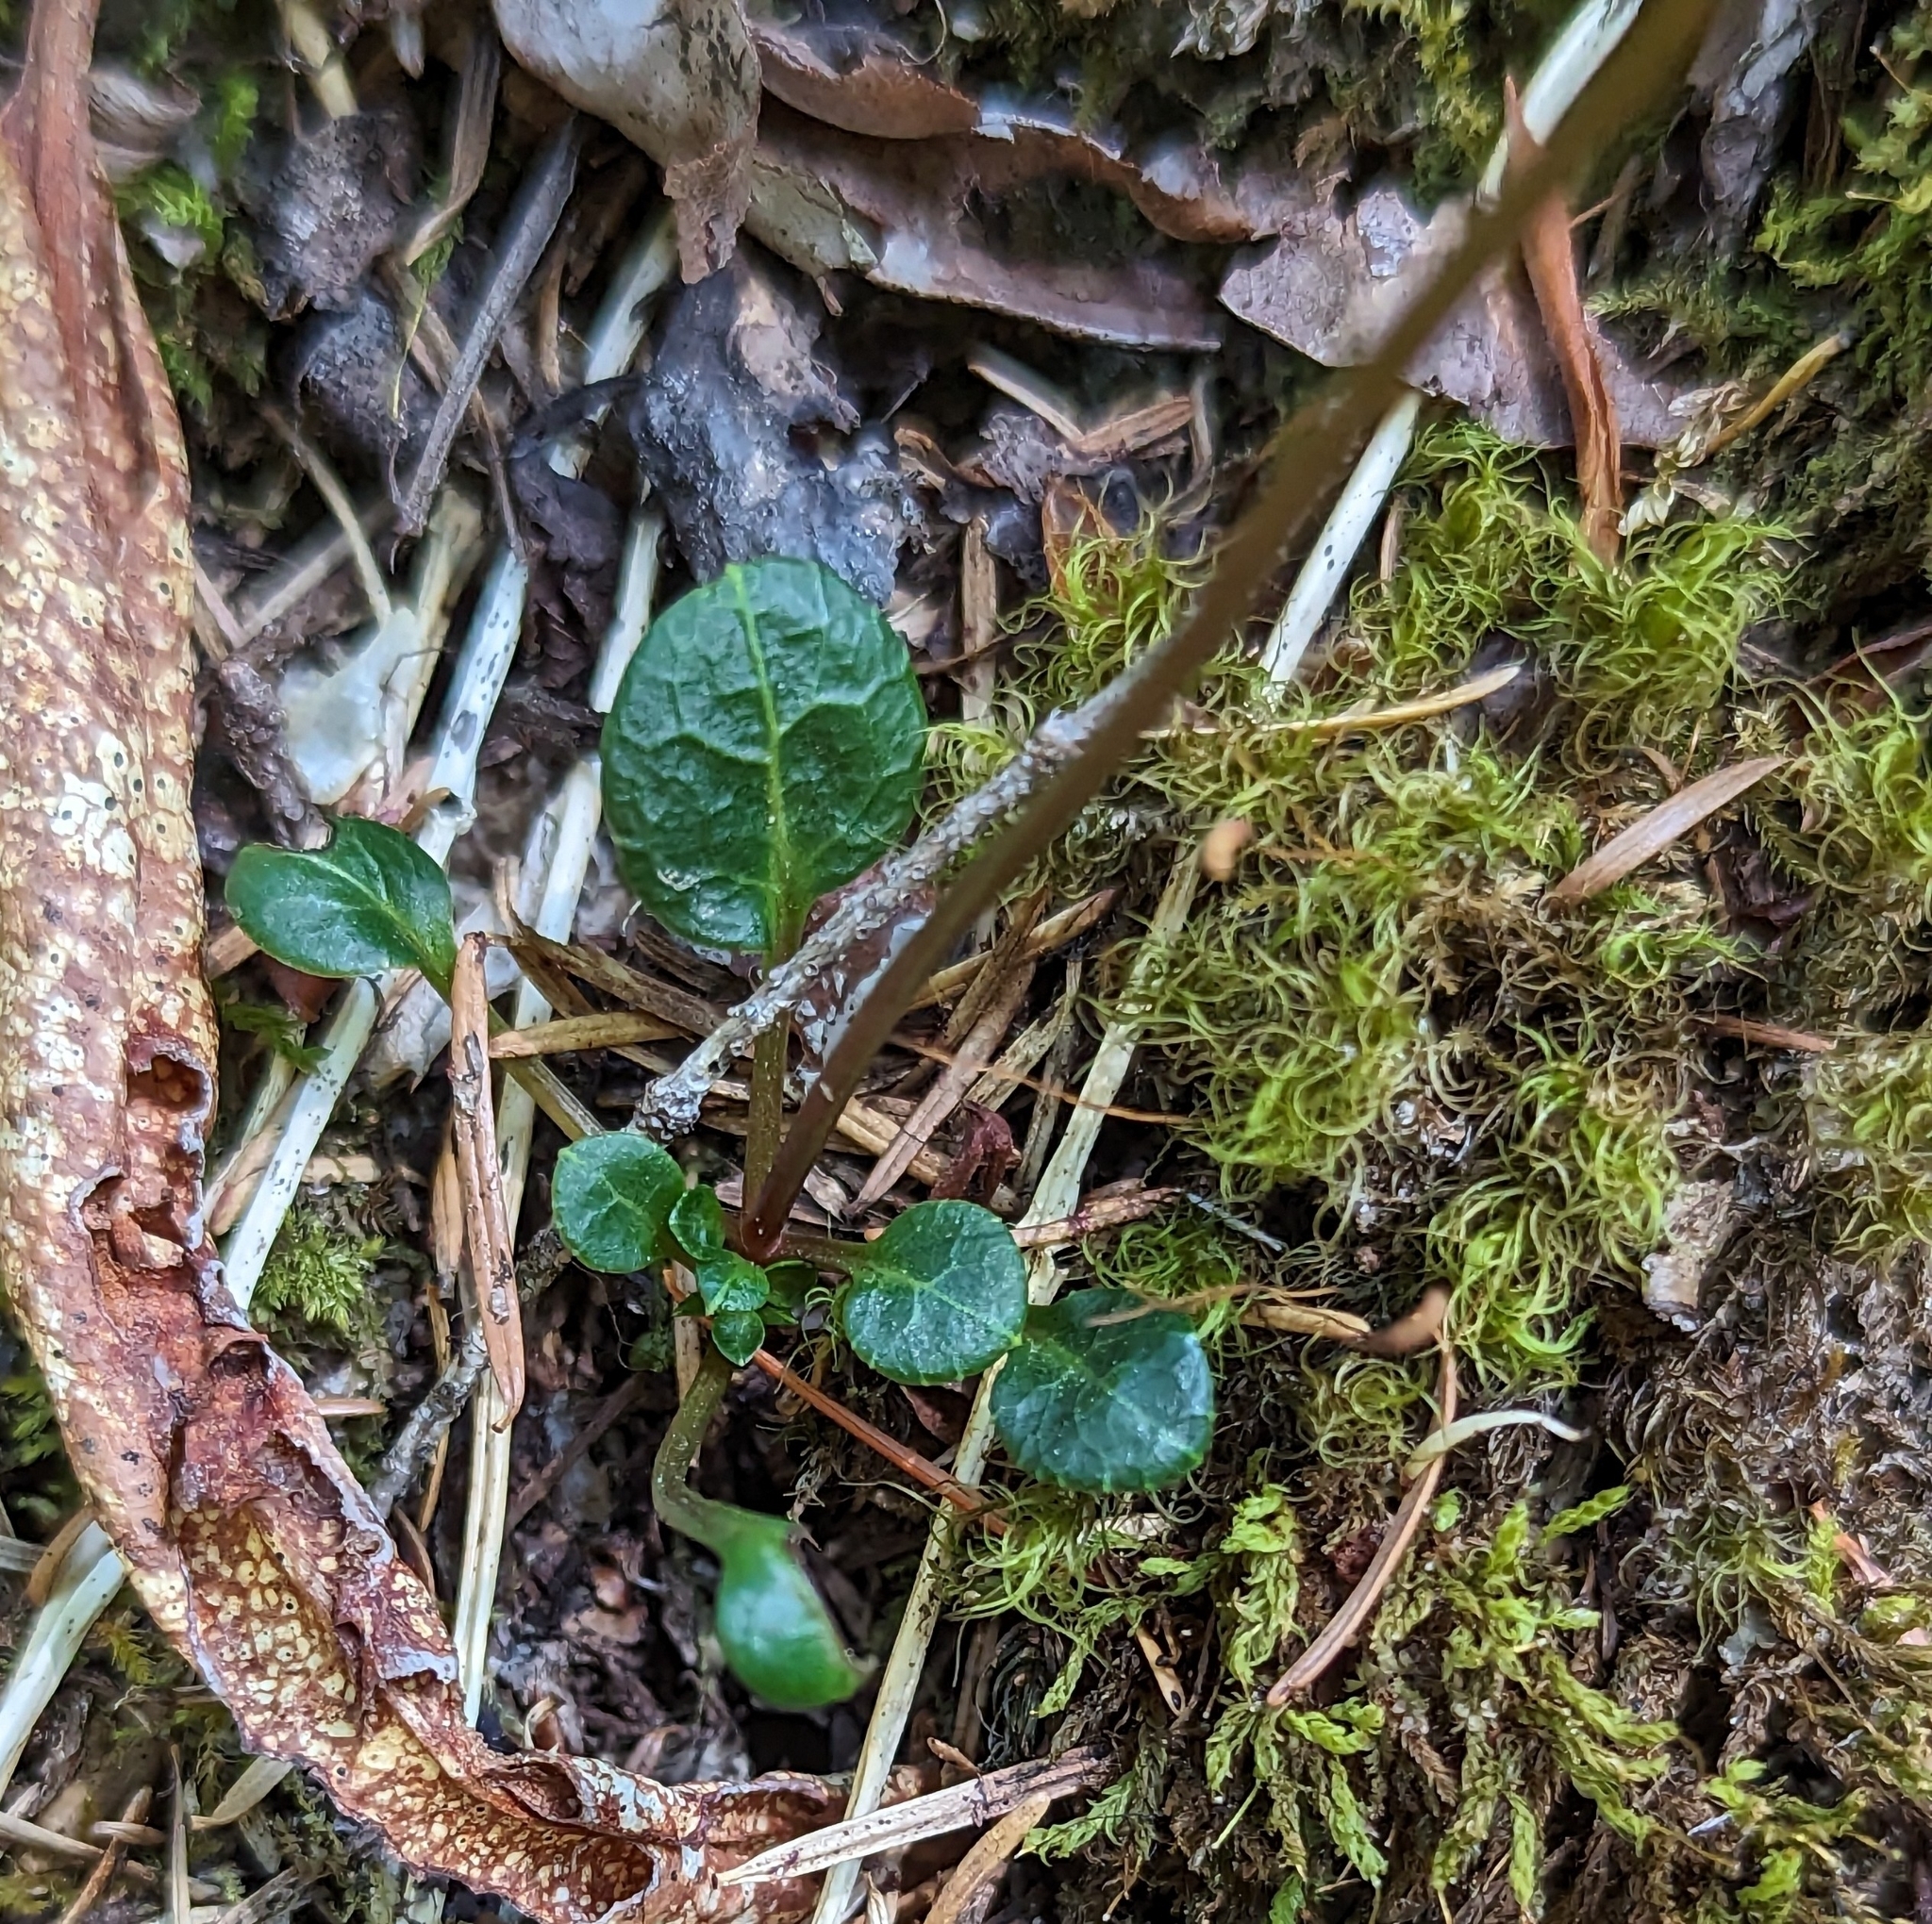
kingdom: Plantae
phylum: Tracheophyta
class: Magnoliopsida
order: Ericales
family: Ericaceae
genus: Pyrola
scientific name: Pyrola chlorantha
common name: Green wintergreen
